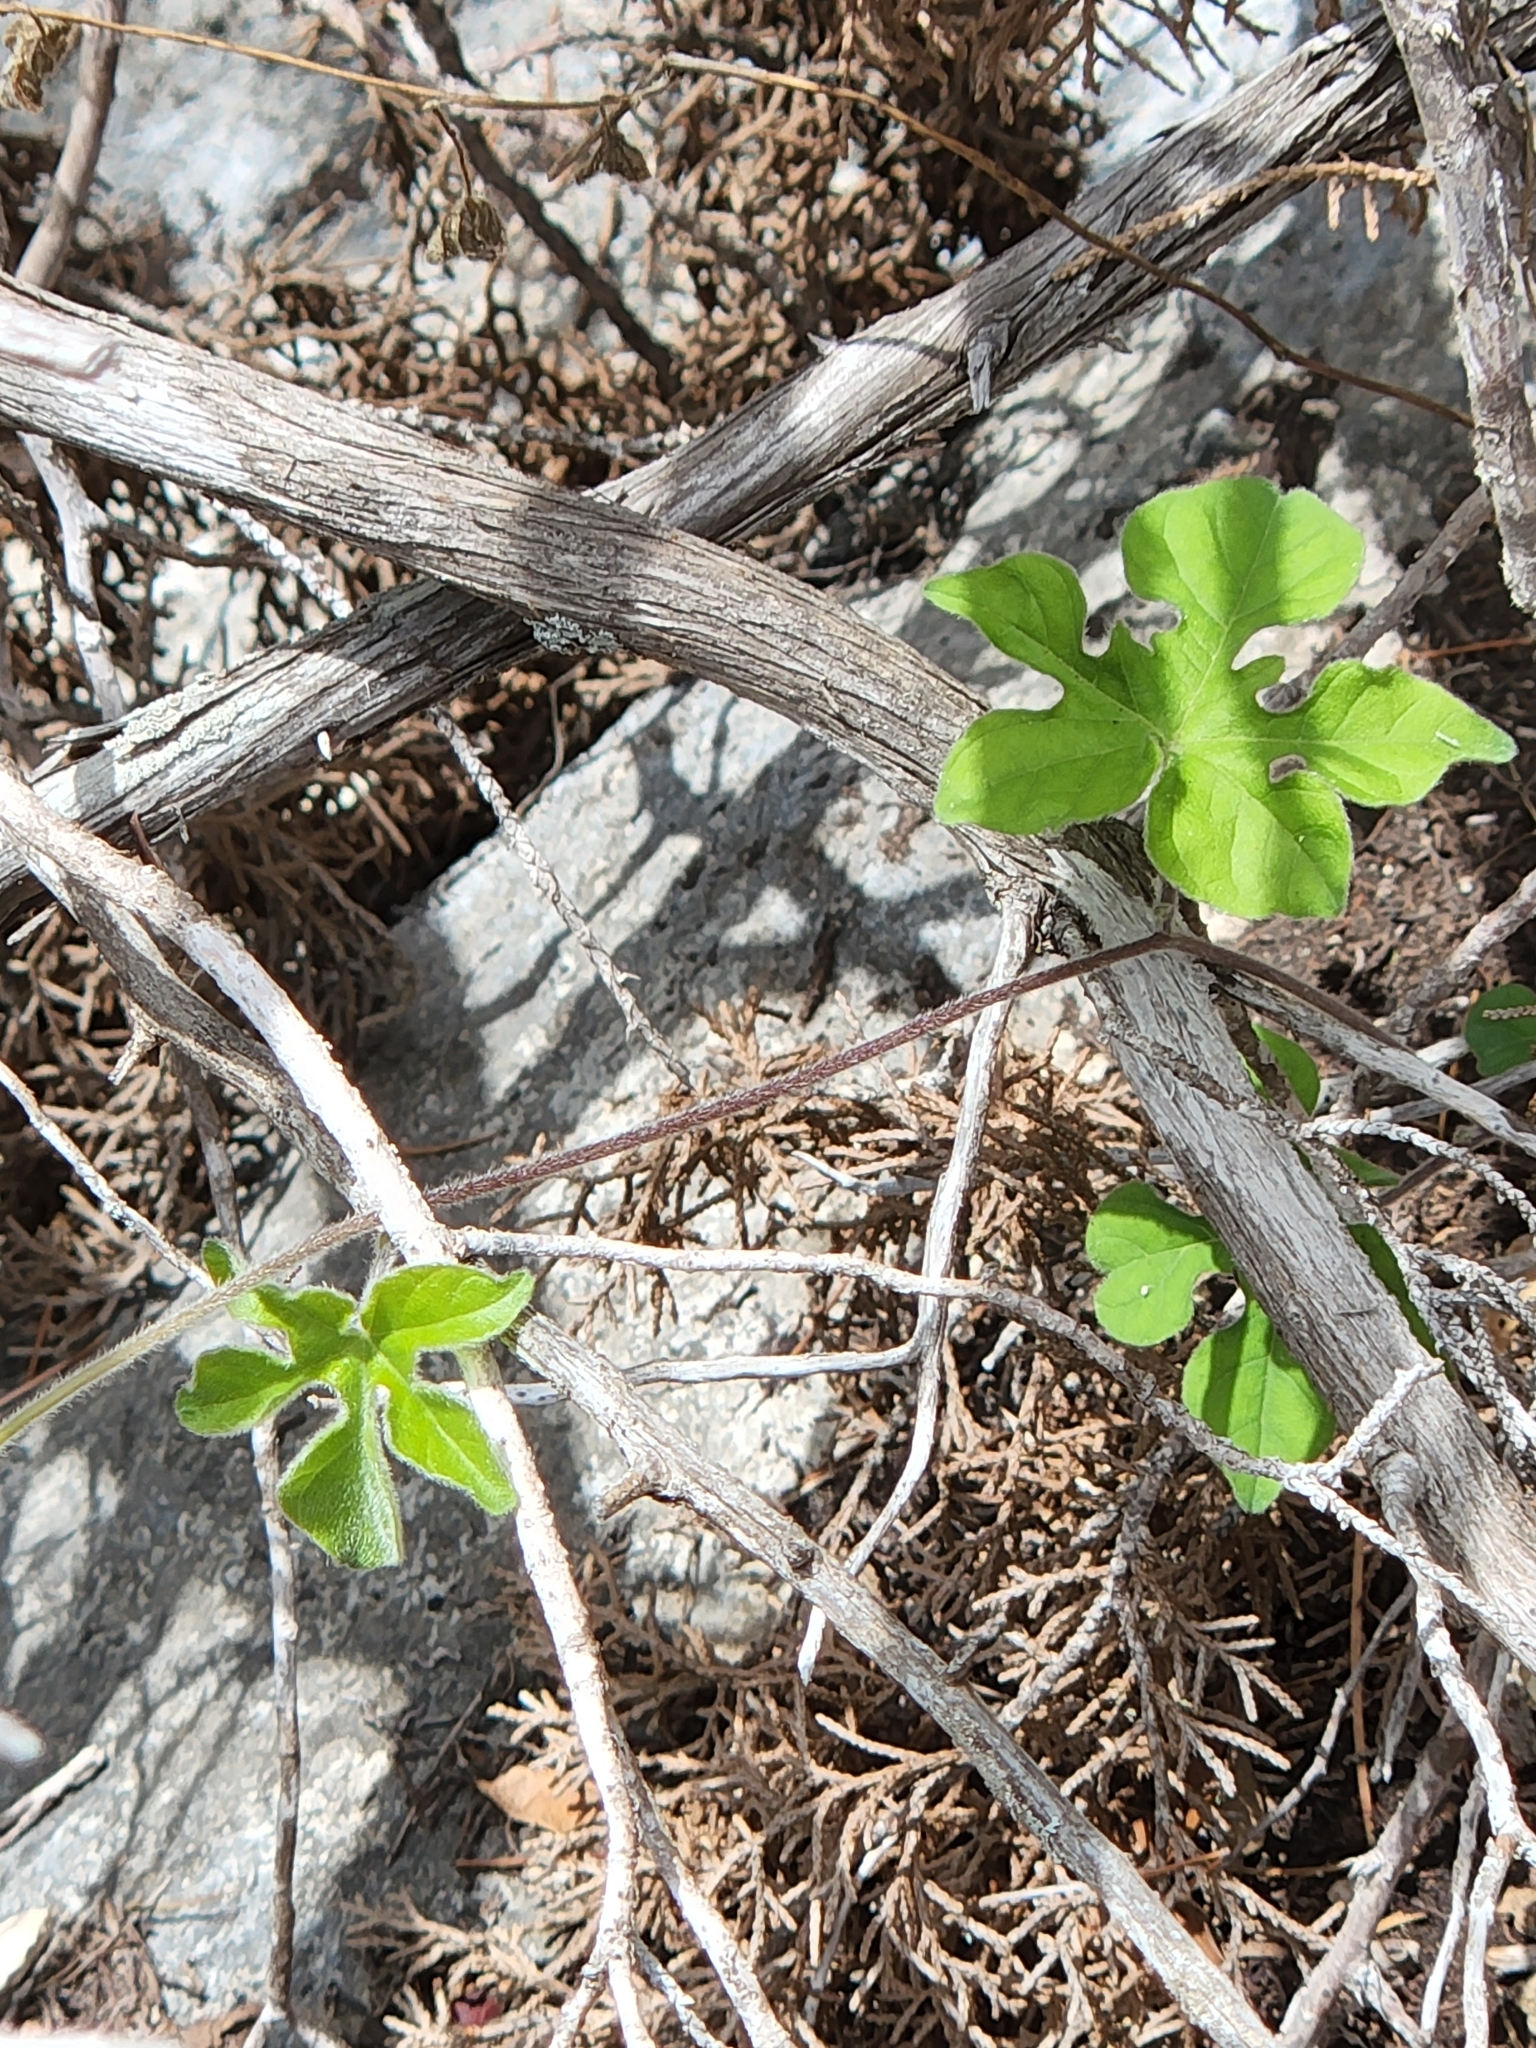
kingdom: Plantae
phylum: Tracheophyta
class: Magnoliopsida
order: Solanales
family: Convolvulaceae
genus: Ipomoea
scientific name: Ipomoea lindheimeri
